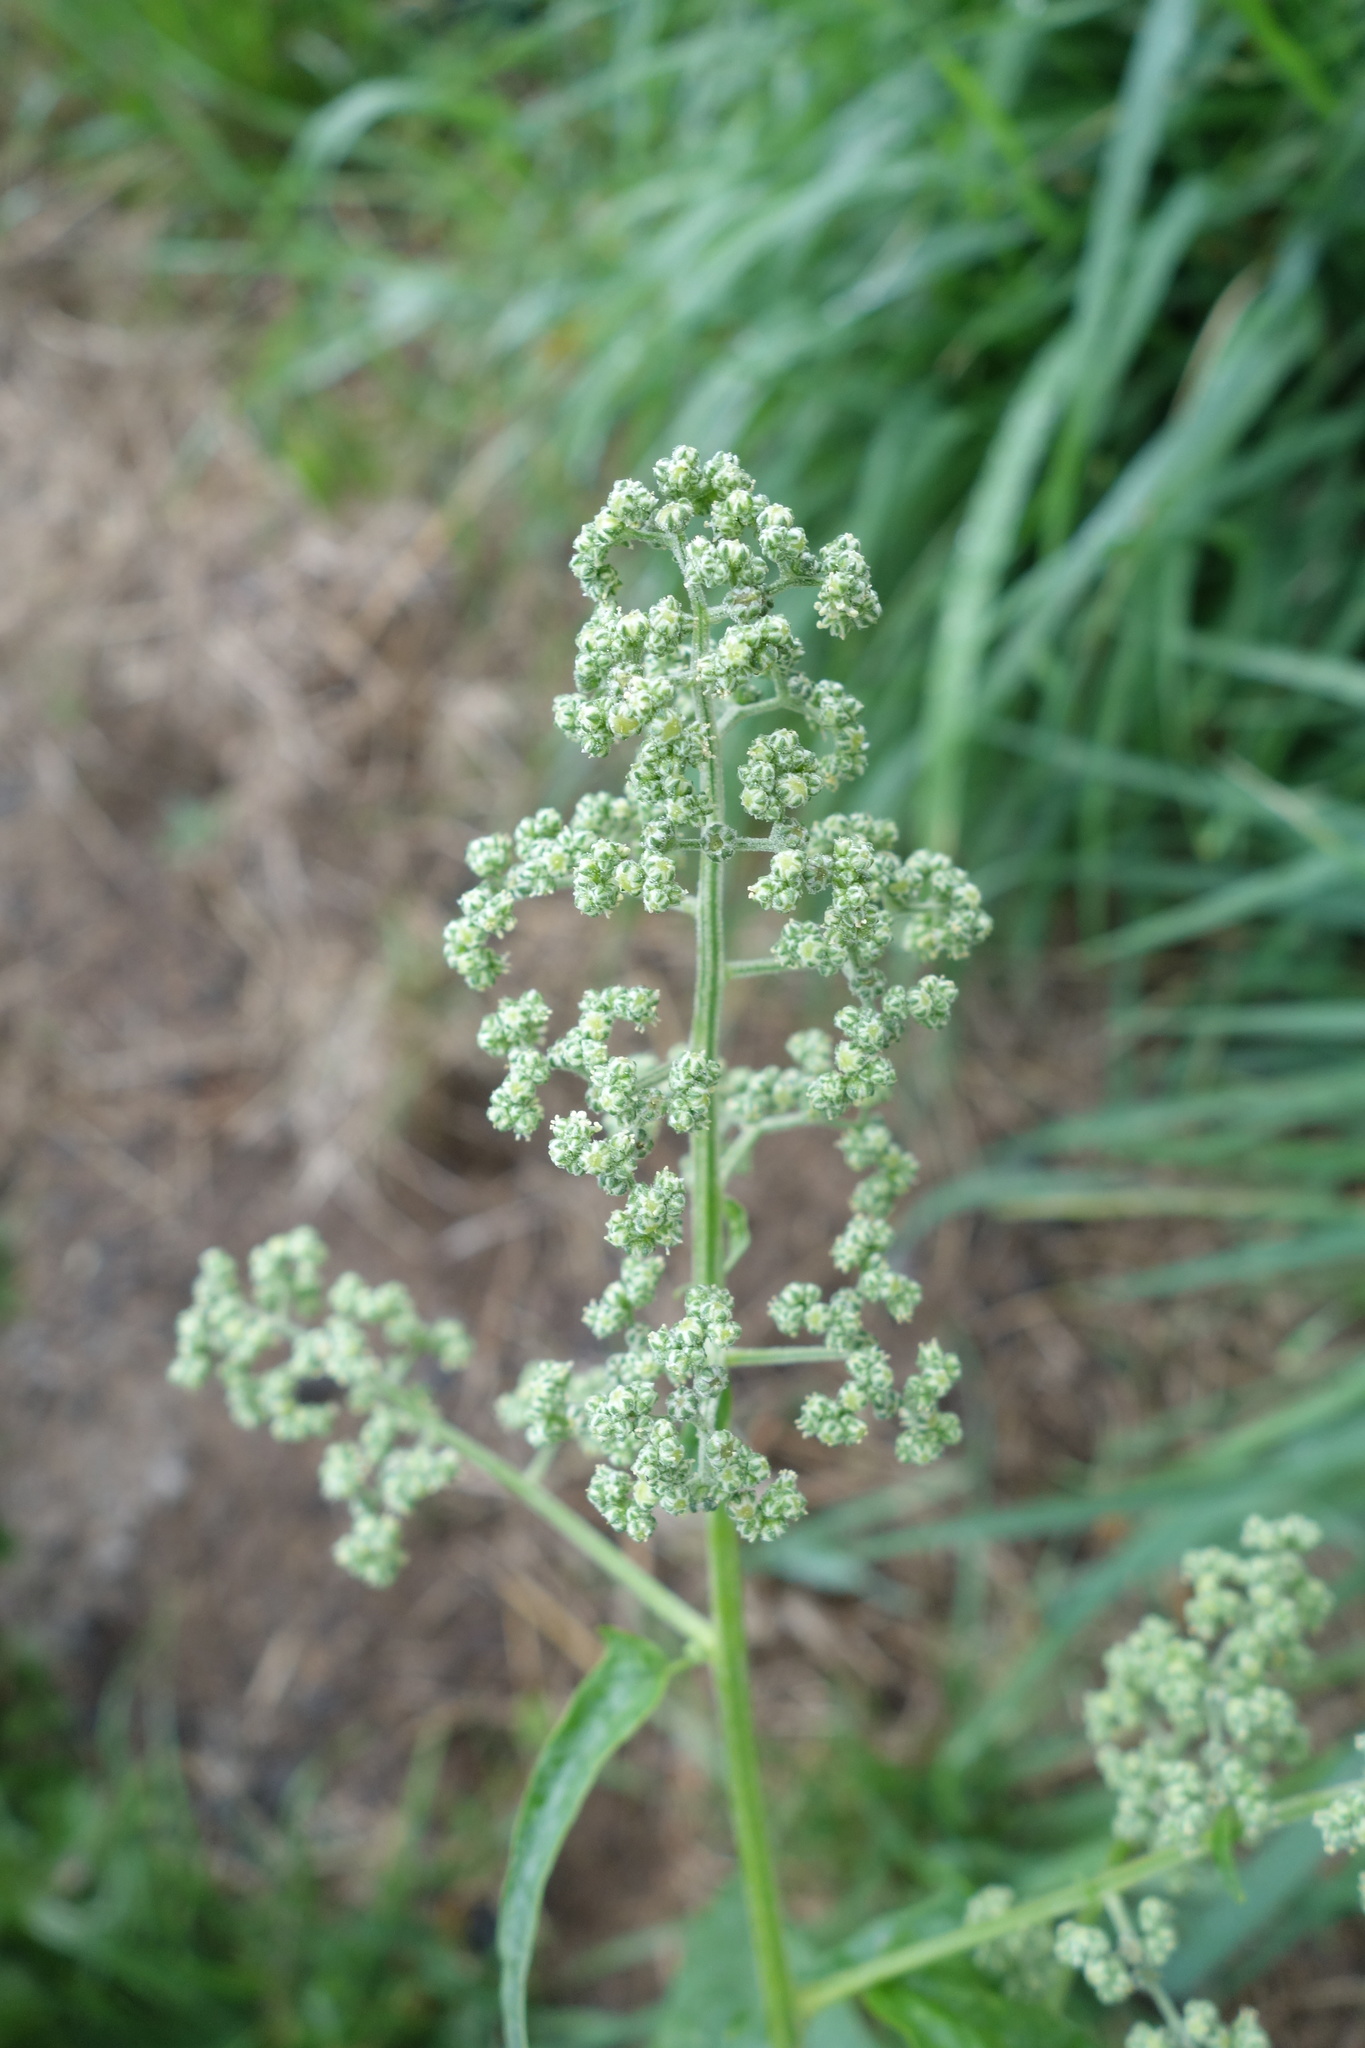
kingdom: Plantae
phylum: Tracheophyta
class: Magnoliopsida
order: Caryophyllales
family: Amaranthaceae
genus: Chenopodiastrum
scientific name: Chenopodiastrum hybridum
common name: Mapleleaf goosefoot
